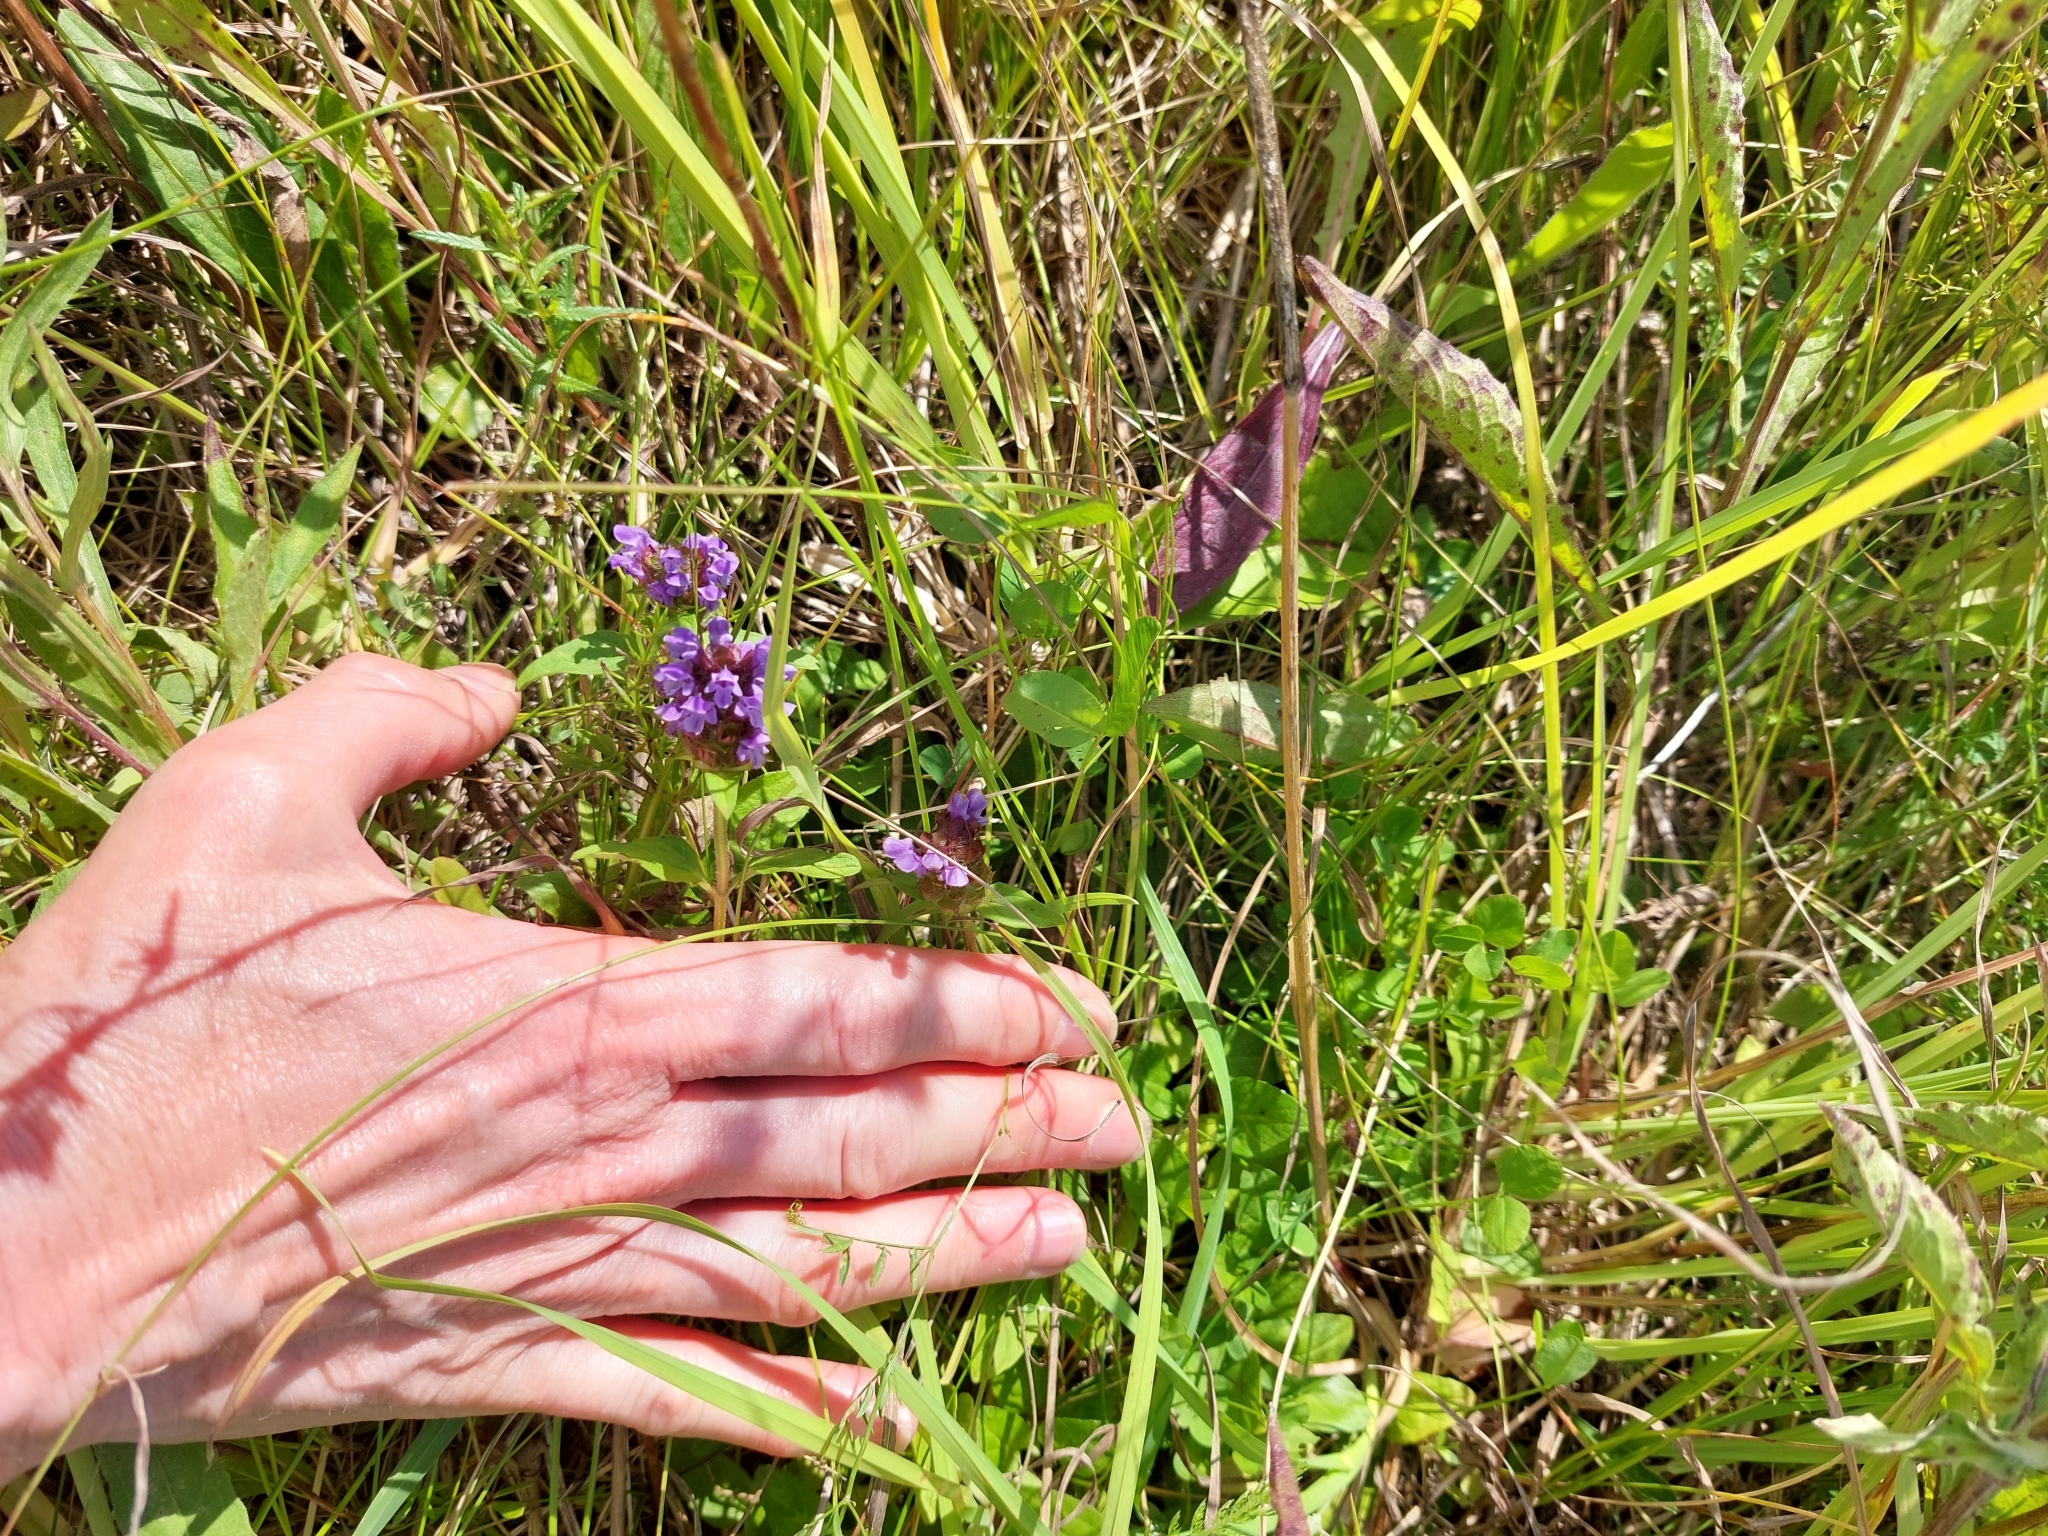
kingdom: Plantae
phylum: Tracheophyta
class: Magnoliopsida
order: Lamiales
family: Lamiaceae
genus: Prunella
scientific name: Prunella vulgaris
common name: Heal-all
